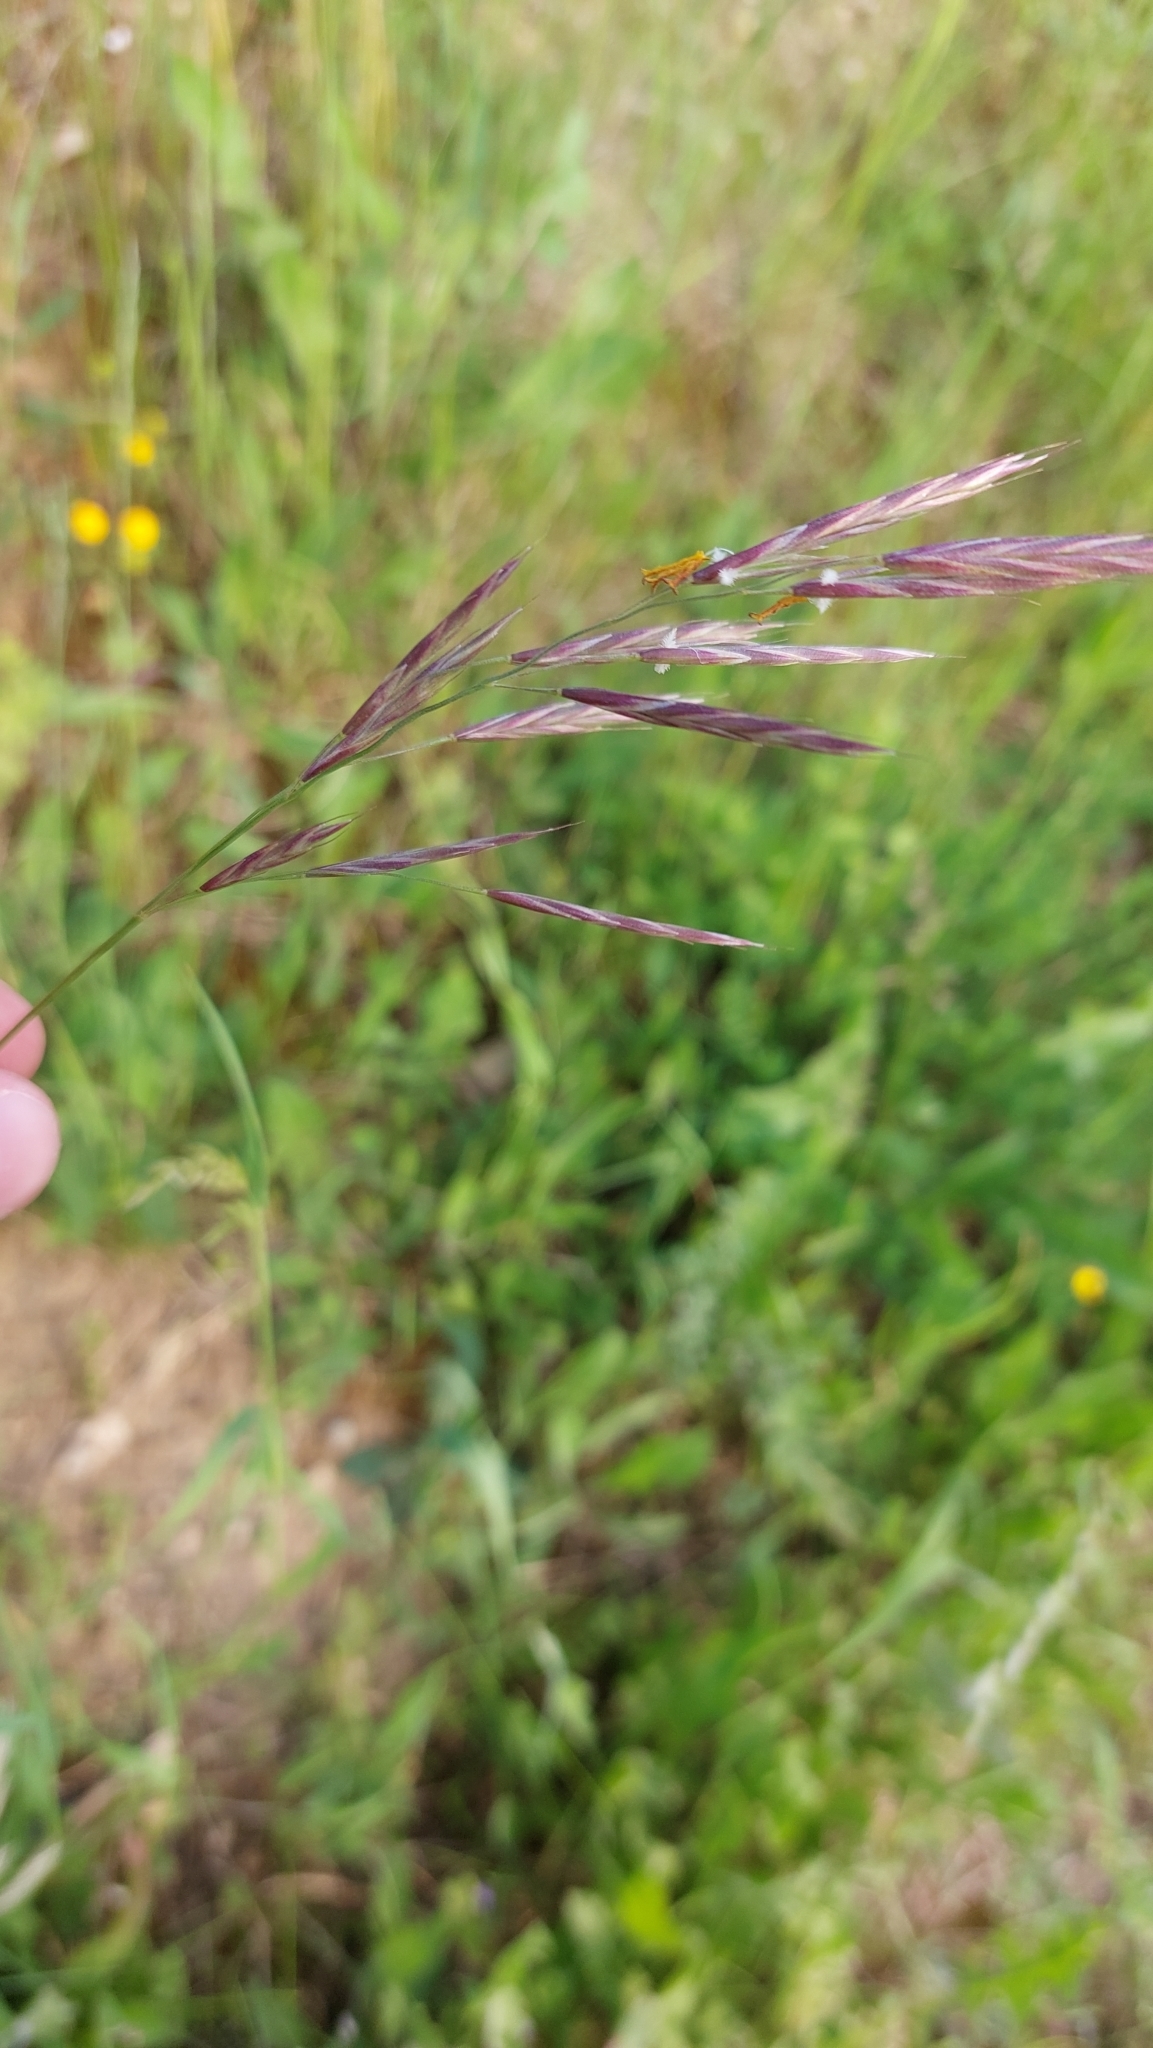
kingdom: Plantae
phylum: Tracheophyta
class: Liliopsida
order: Poales
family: Poaceae
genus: Bromus
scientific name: Bromus erectus
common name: Erect brome
